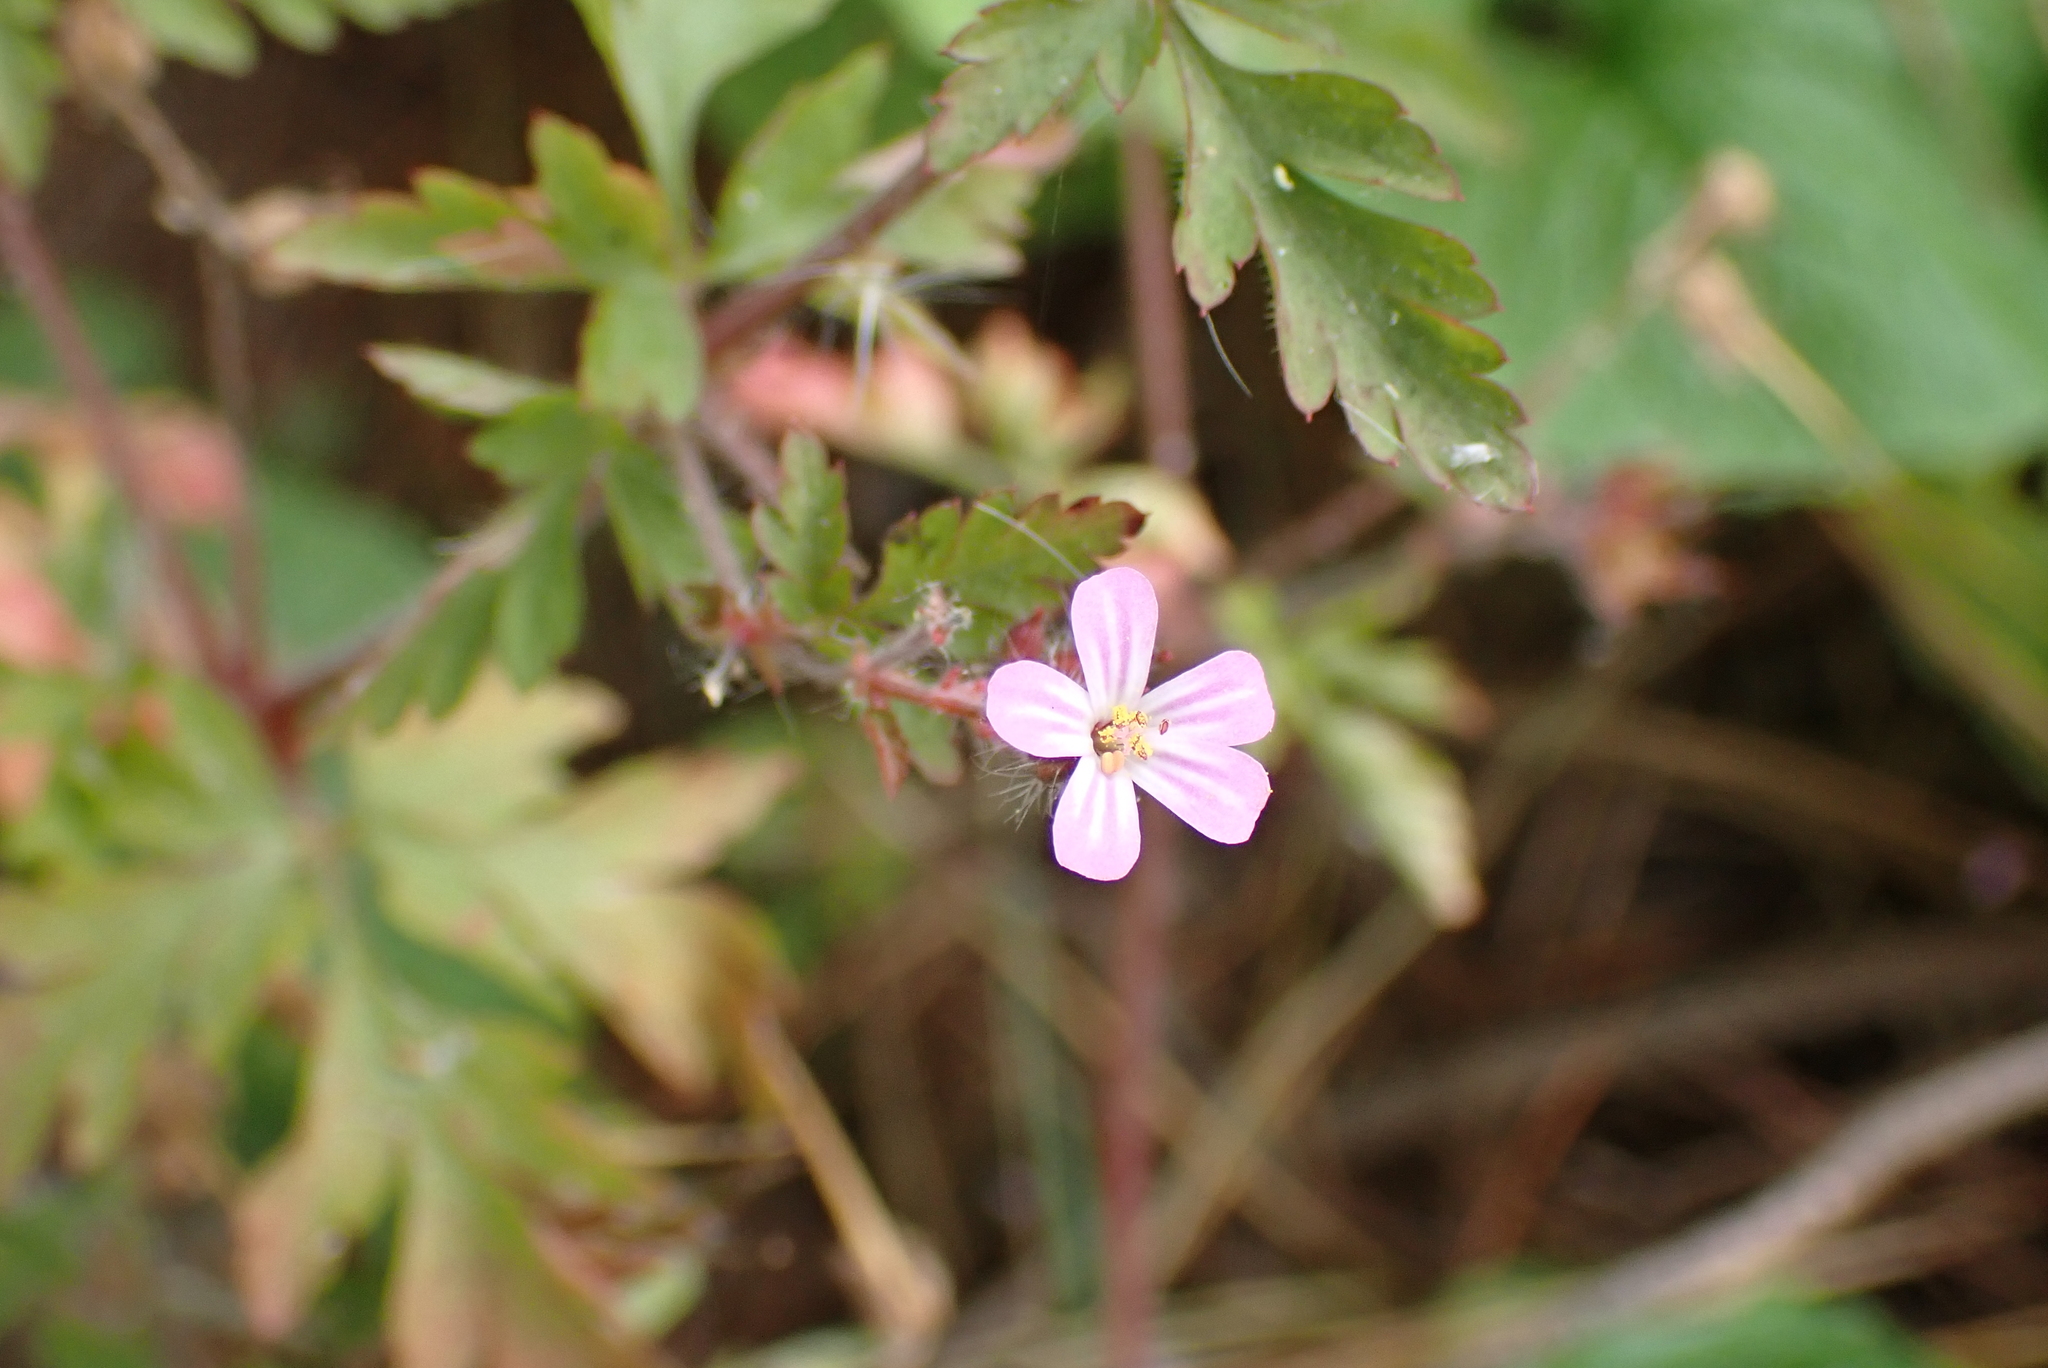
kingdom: Plantae
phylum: Tracheophyta
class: Magnoliopsida
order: Geraniales
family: Geraniaceae
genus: Geranium
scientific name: Geranium robertianum
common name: Herb-robert
